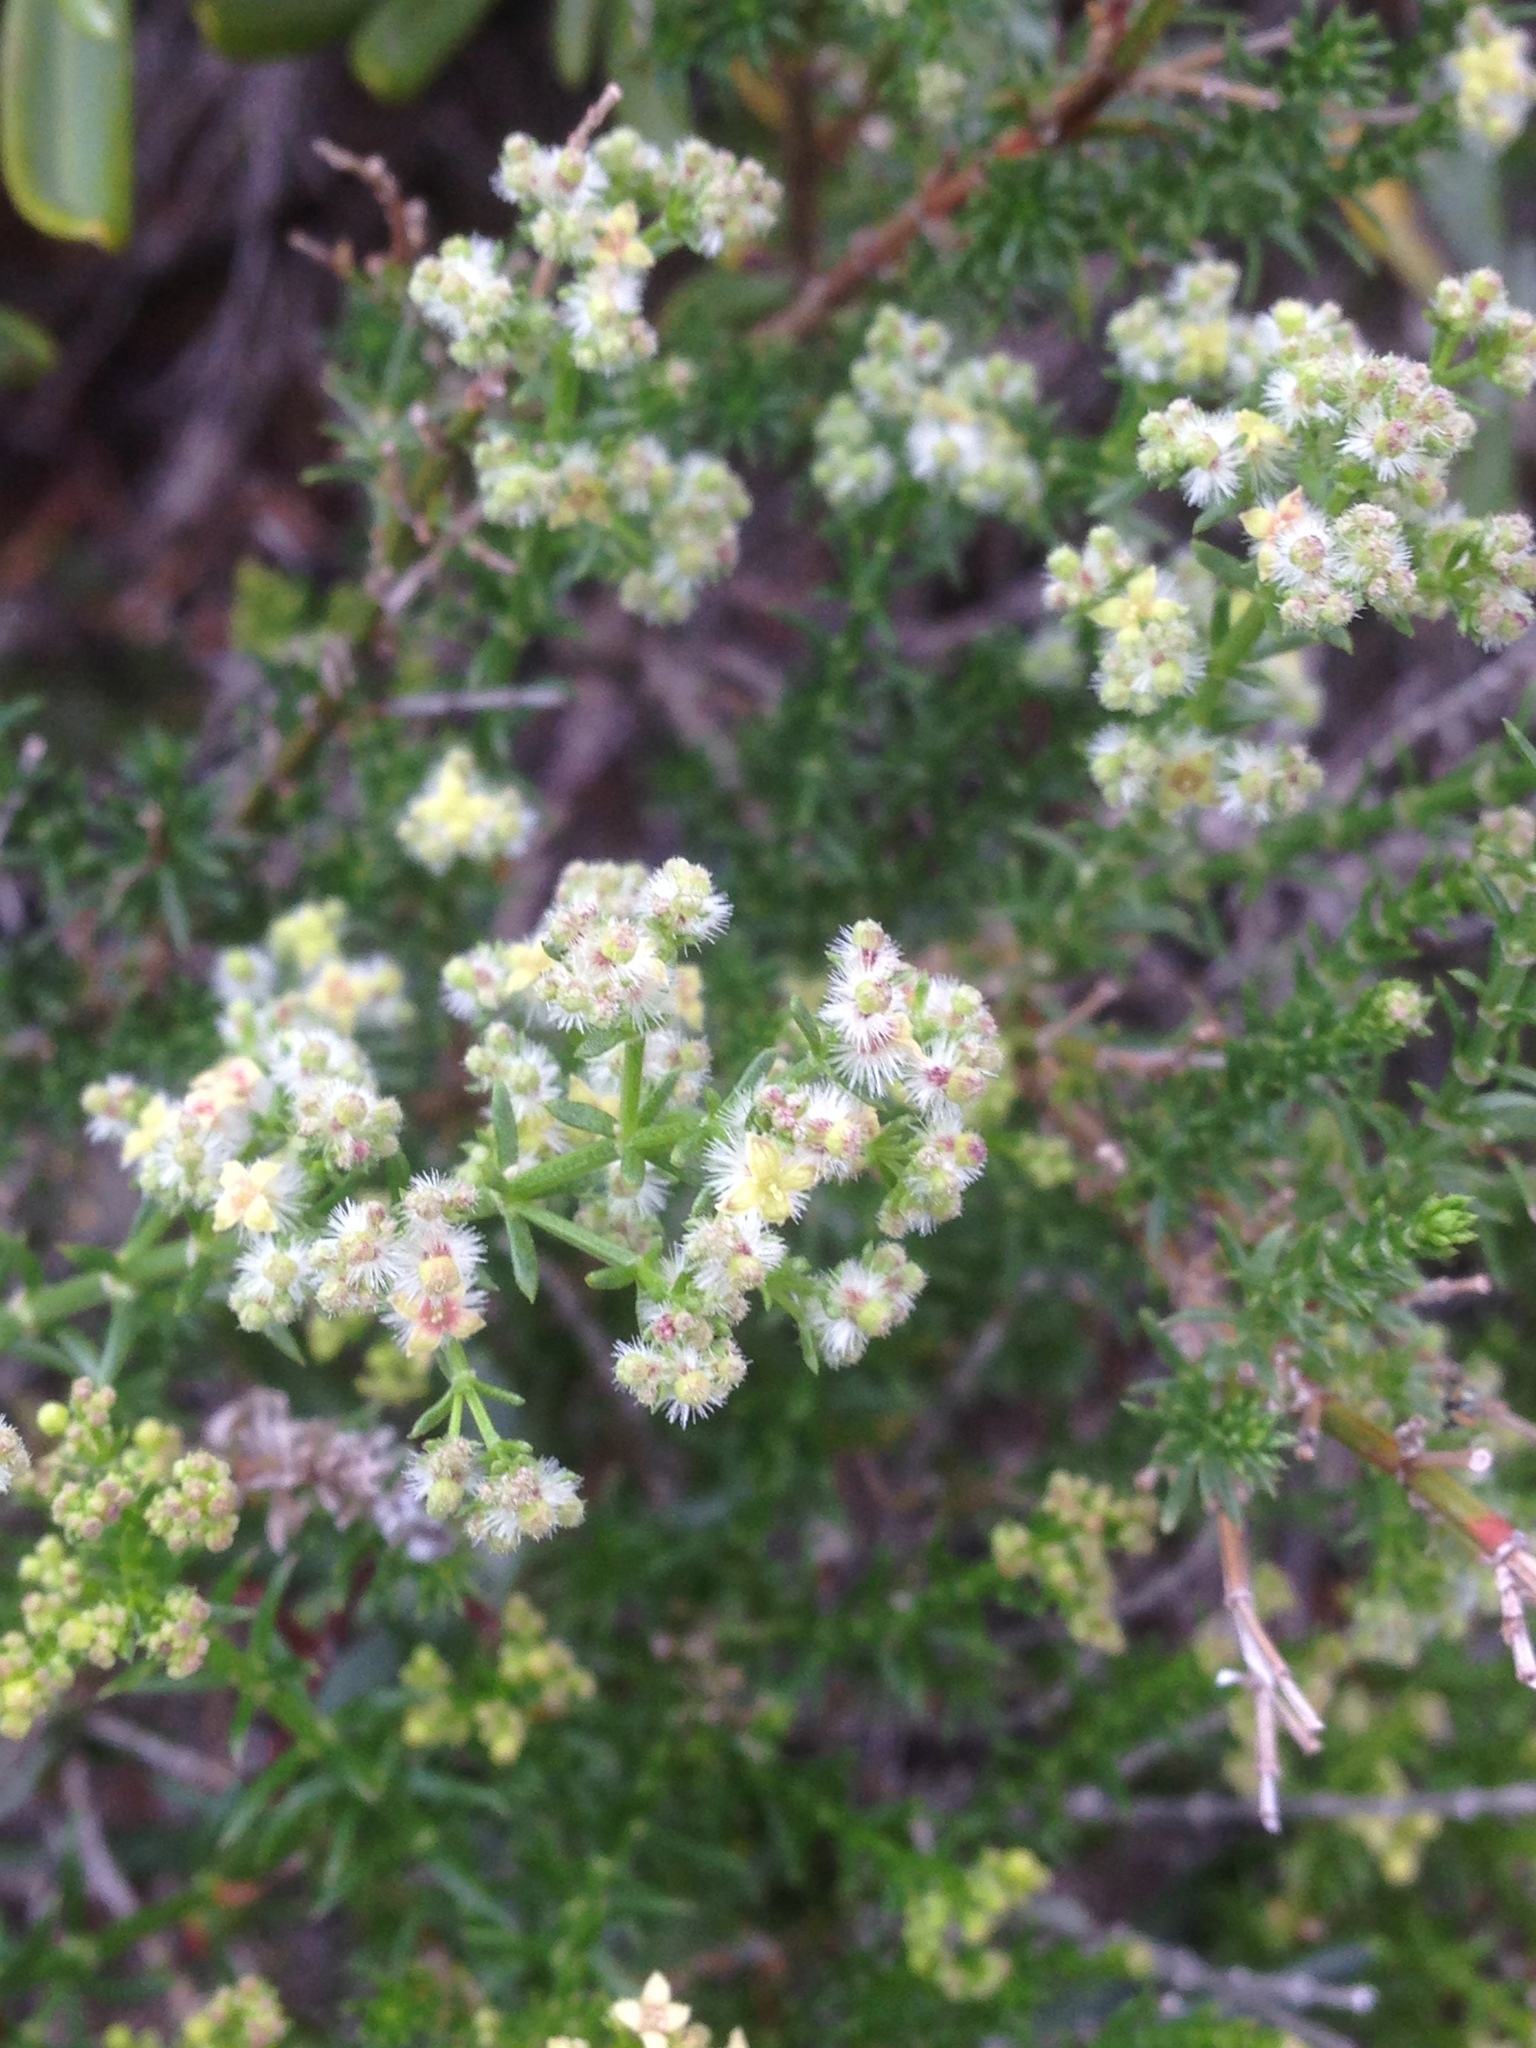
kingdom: Plantae
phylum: Tracheophyta
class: Magnoliopsida
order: Gentianales
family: Rubiaceae
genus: Galium
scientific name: Galium angustifolium
